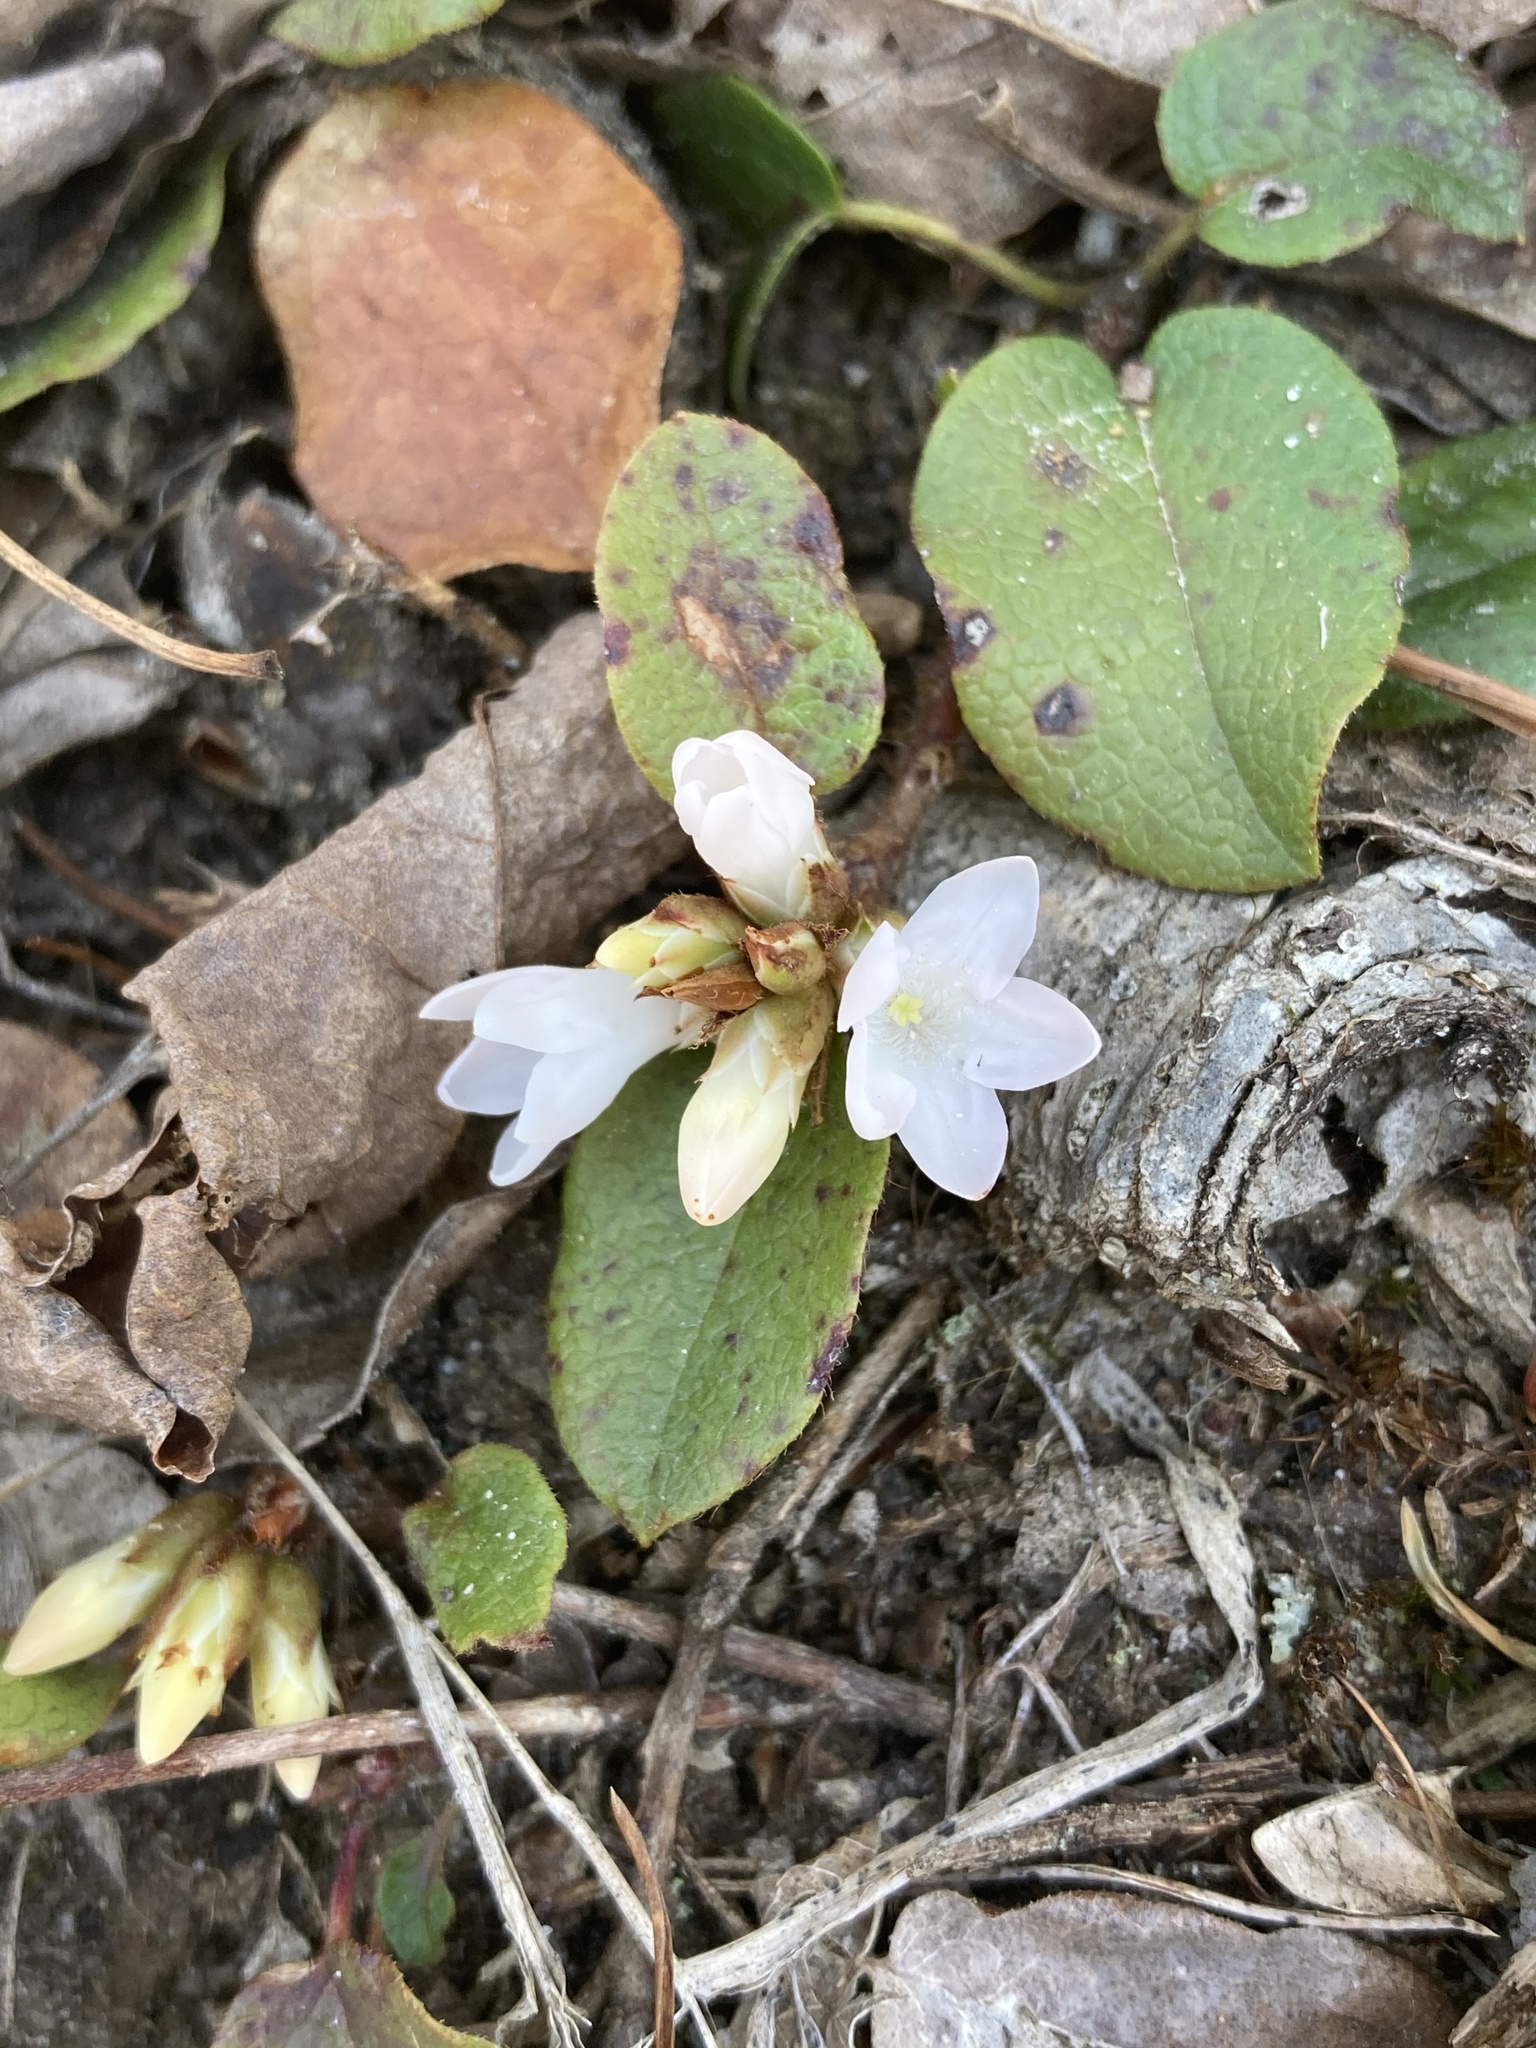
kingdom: Plantae
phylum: Tracheophyta
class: Magnoliopsida
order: Ericales
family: Ericaceae
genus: Epigaea
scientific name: Epigaea repens
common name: Gravelroot
